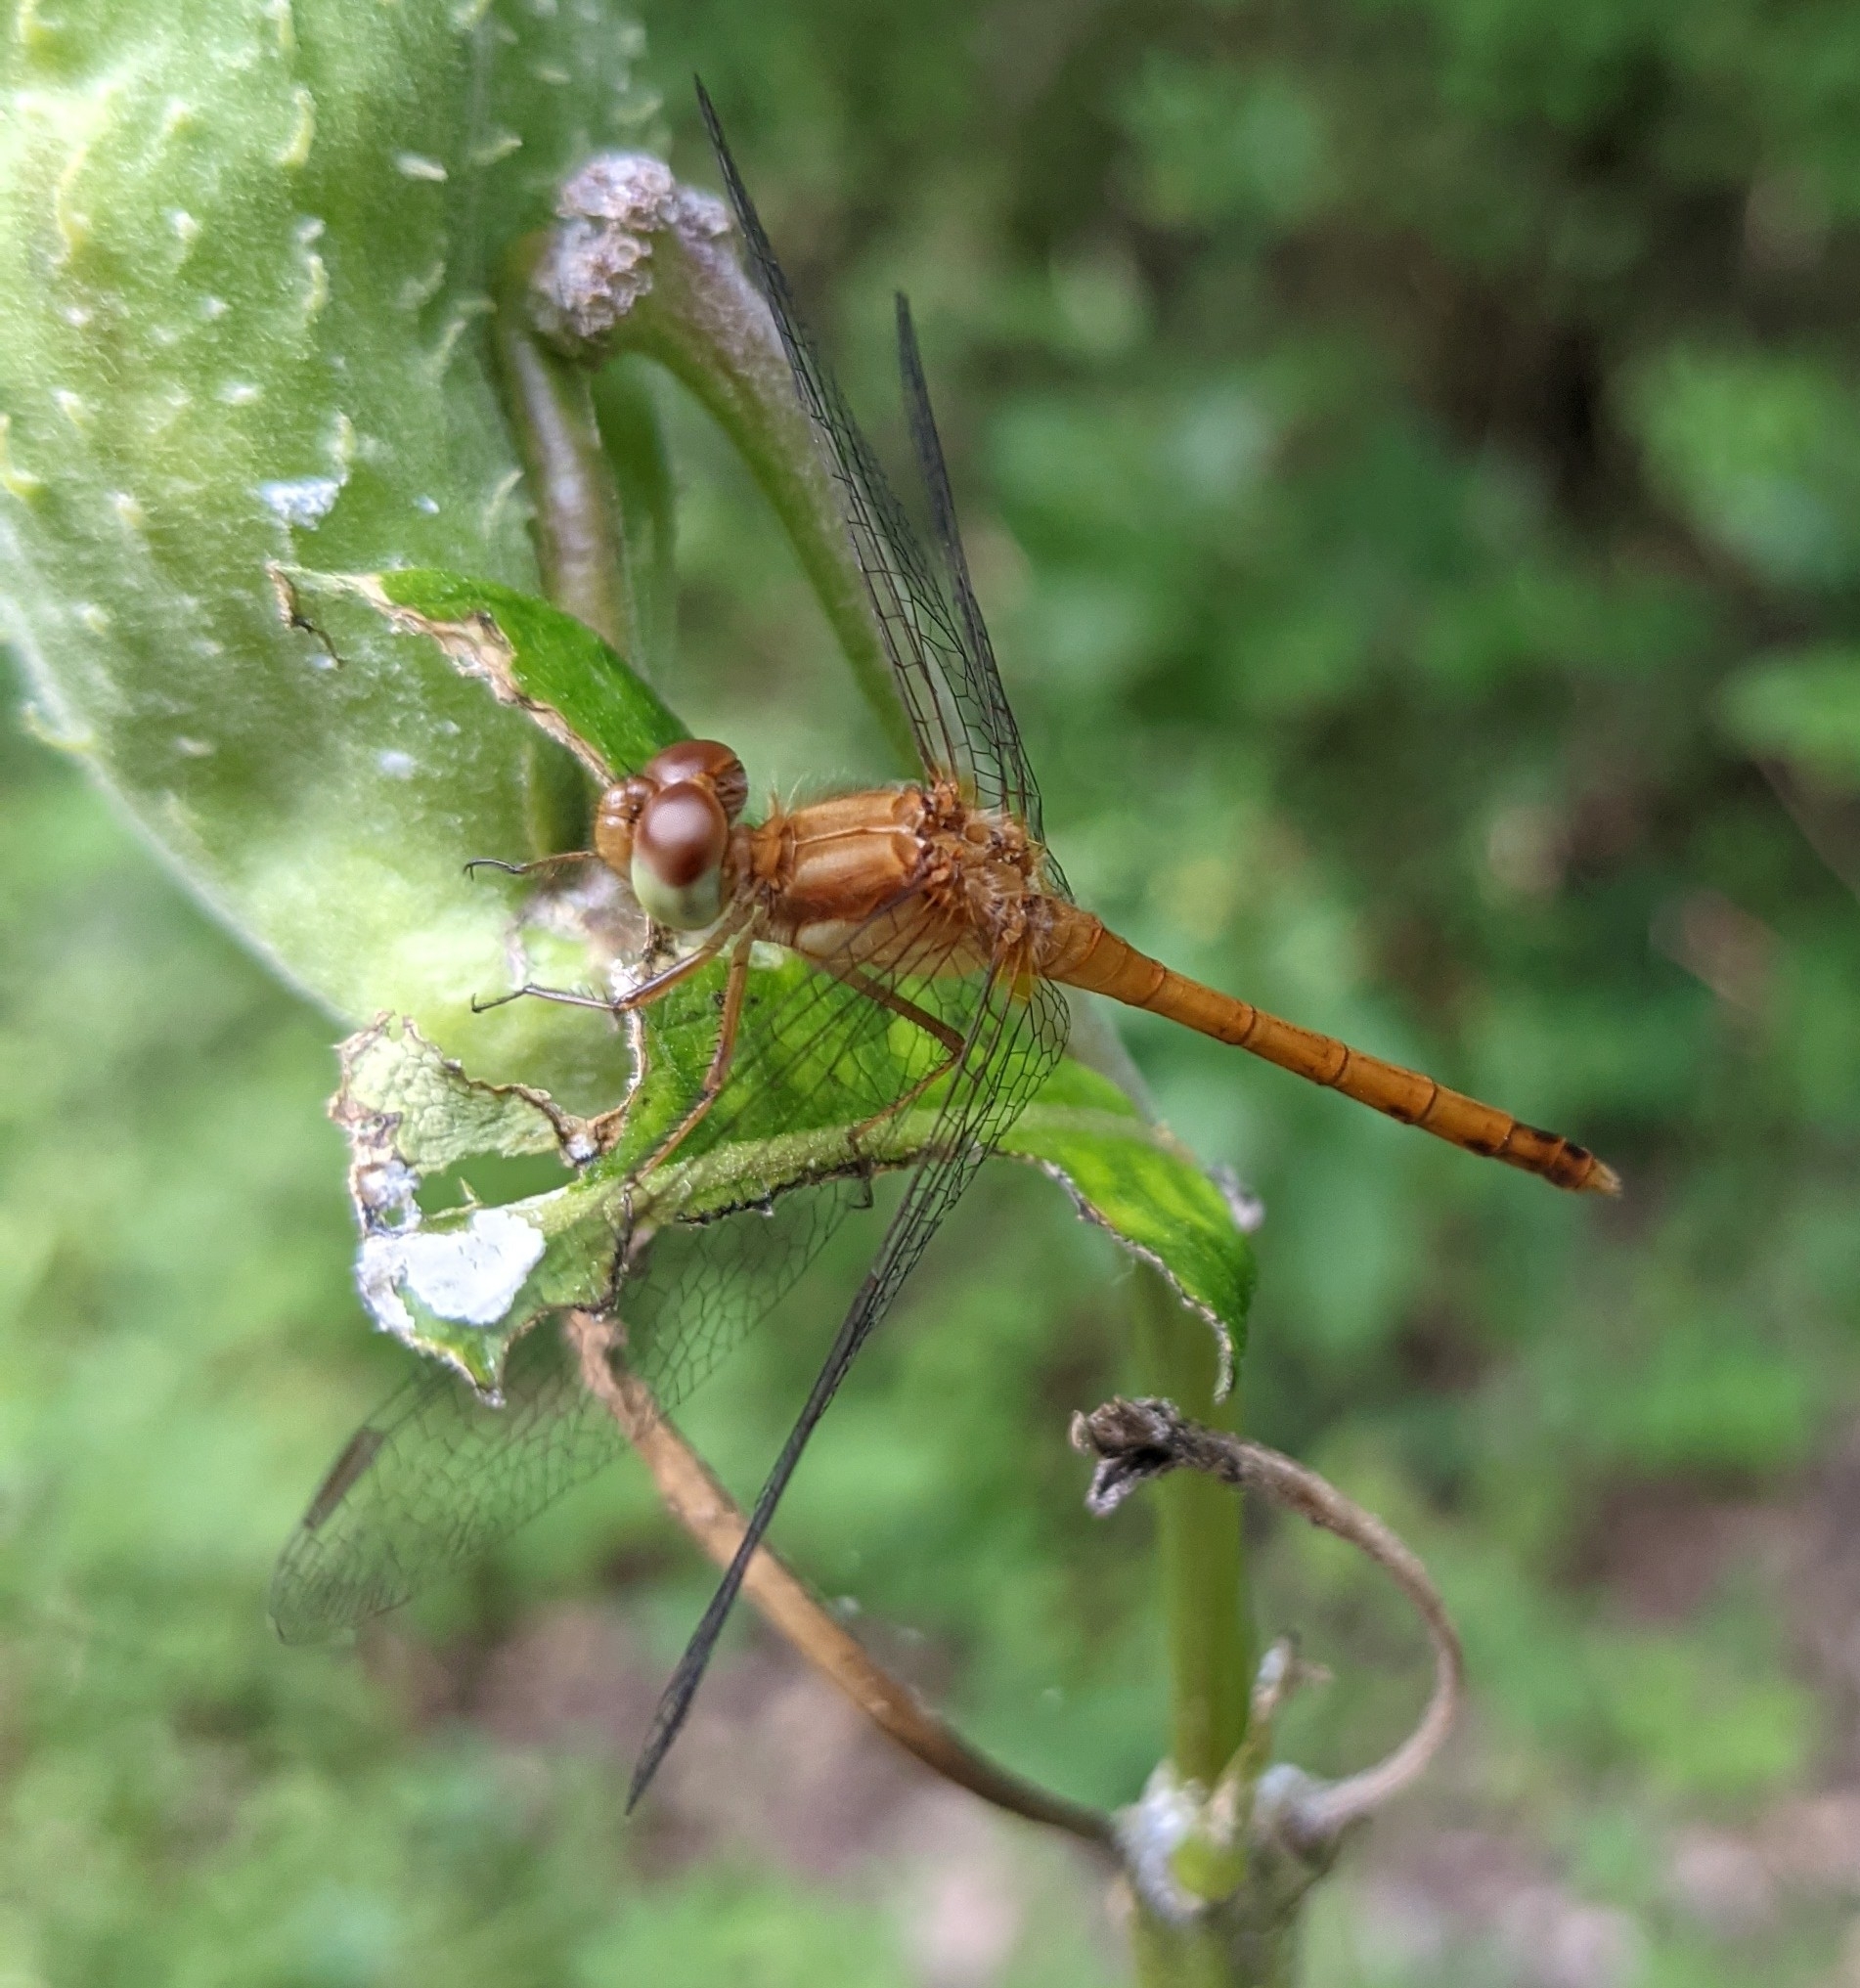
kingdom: Animalia
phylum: Arthropoda
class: Insecta
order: Odonata
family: Libellulidae
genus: Sympetrum
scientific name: Sympetrum vicinum
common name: Autumn meadowhawk
